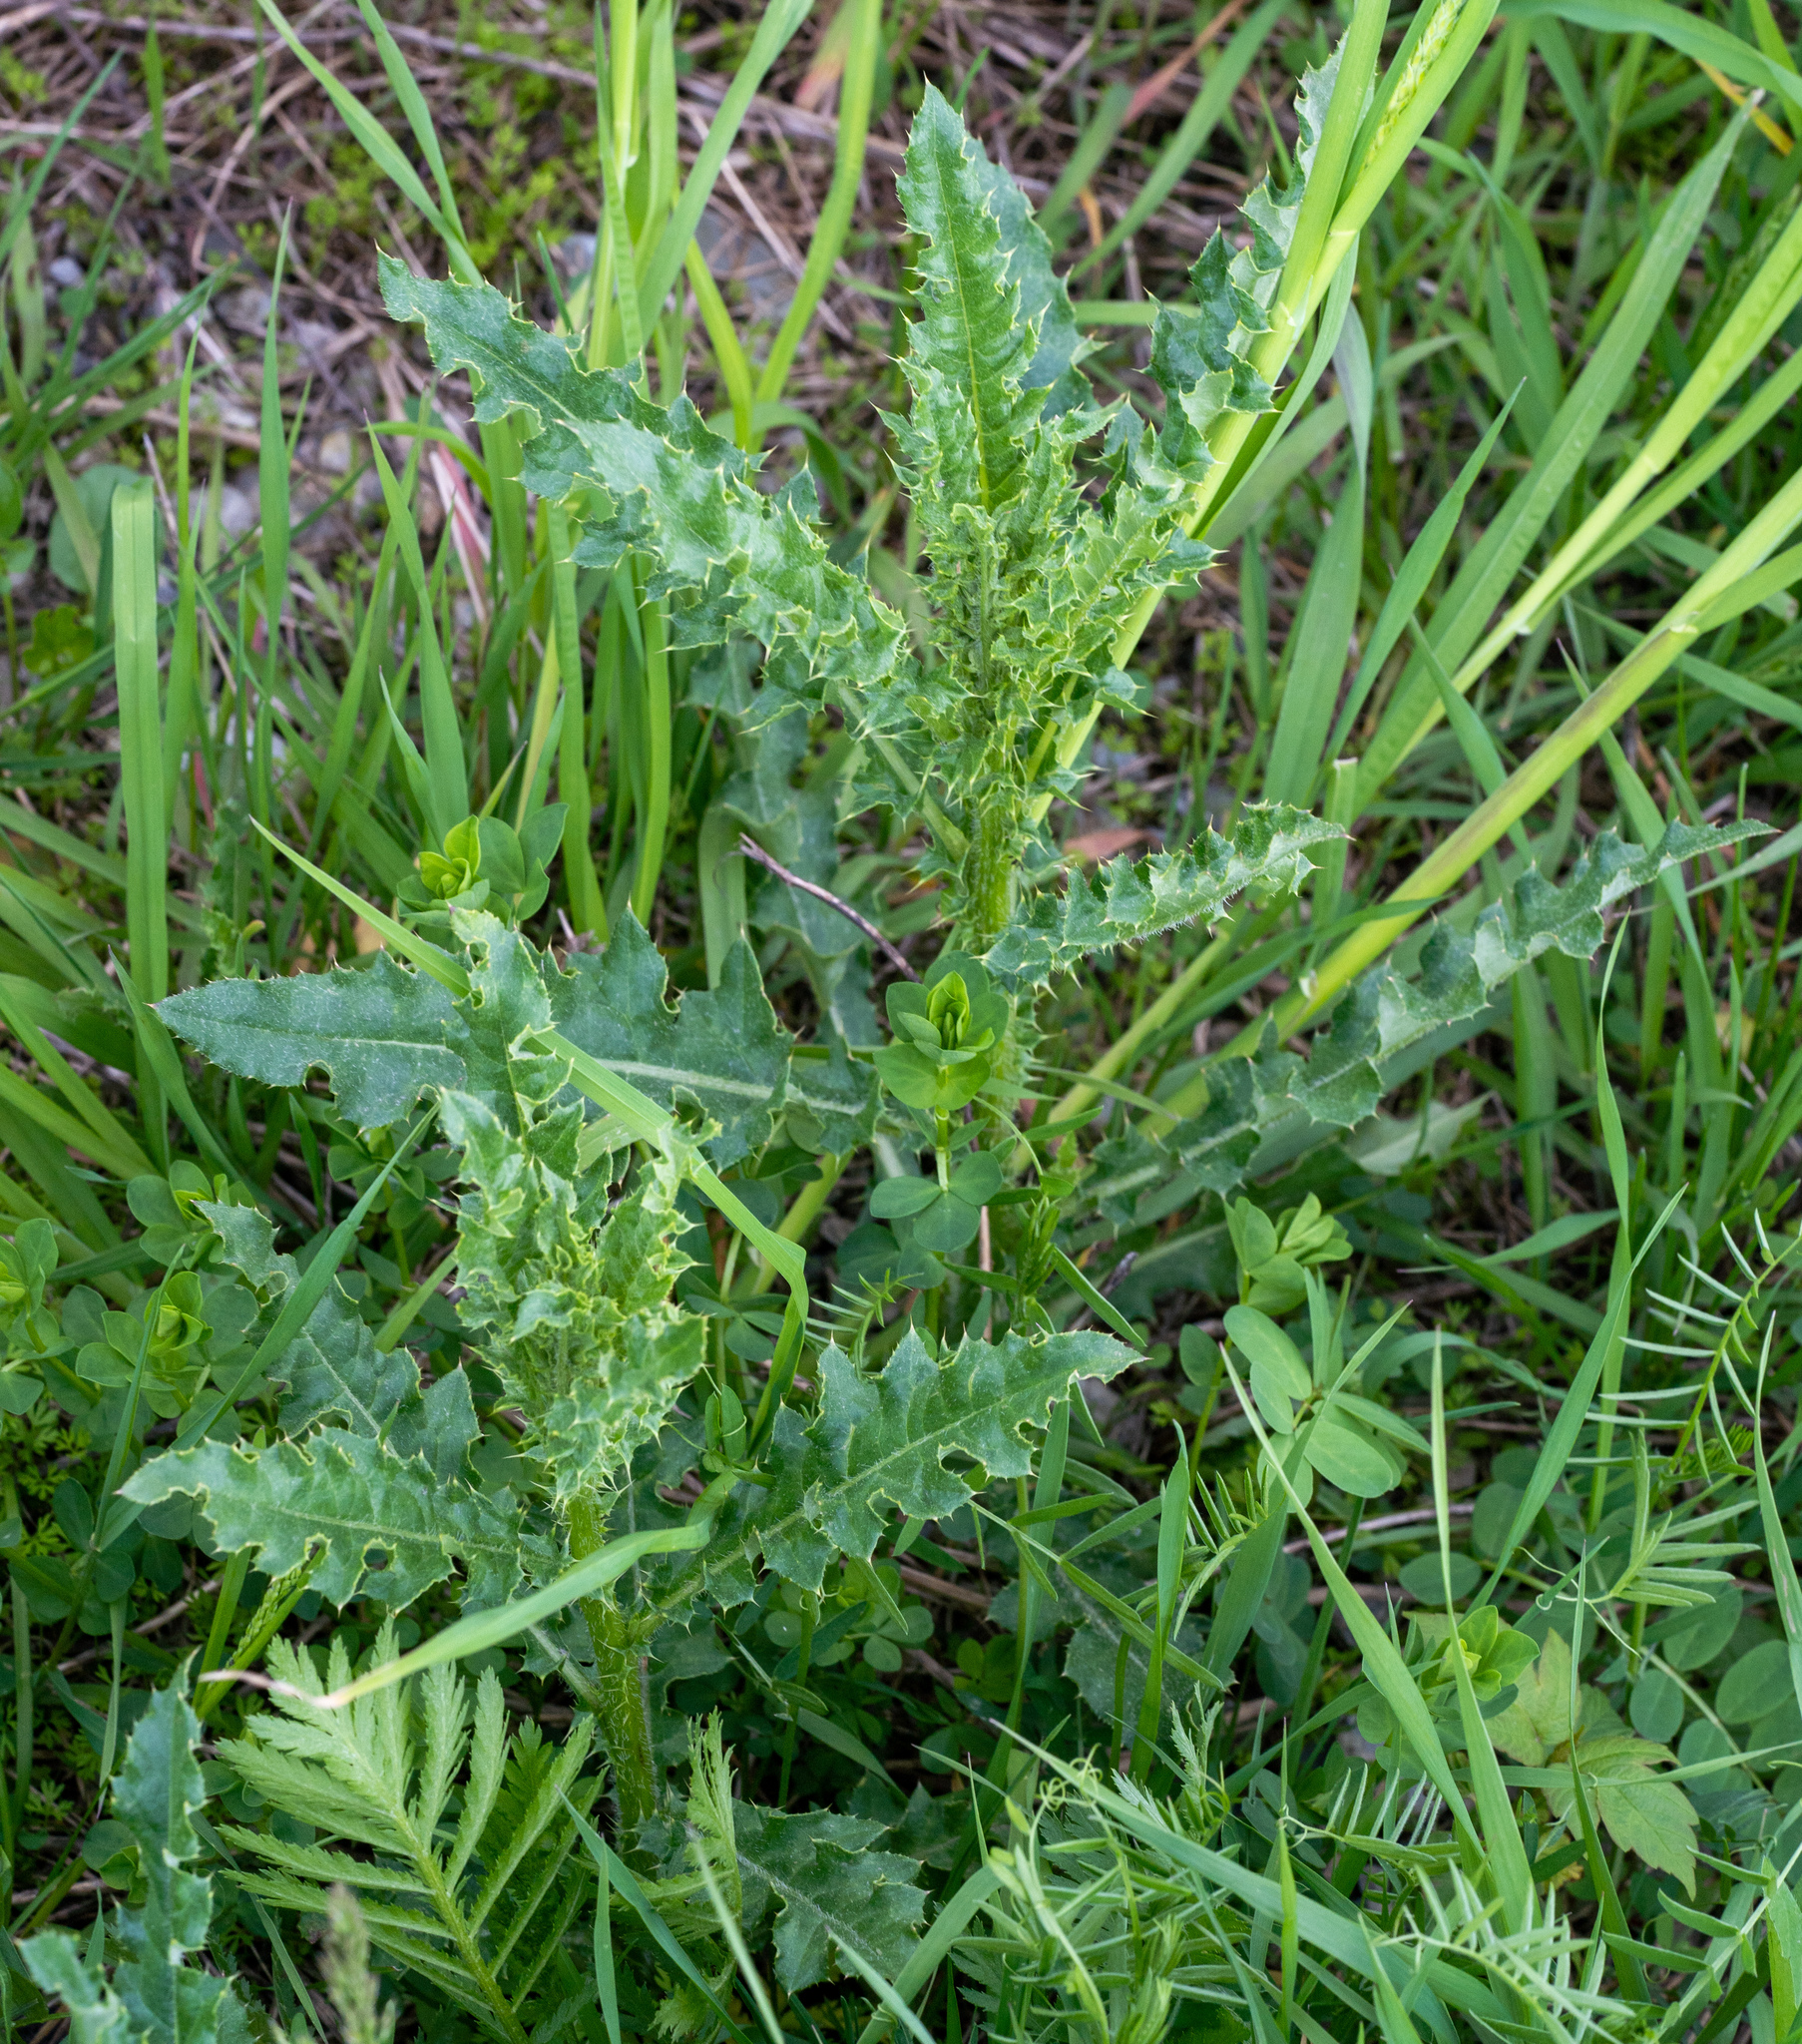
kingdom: Plantae
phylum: Tracheophyta
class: Magnoliopsida
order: Asterales
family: Asteraceae
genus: Cirsium
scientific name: Cirsium arvense
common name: Creeping thistle
